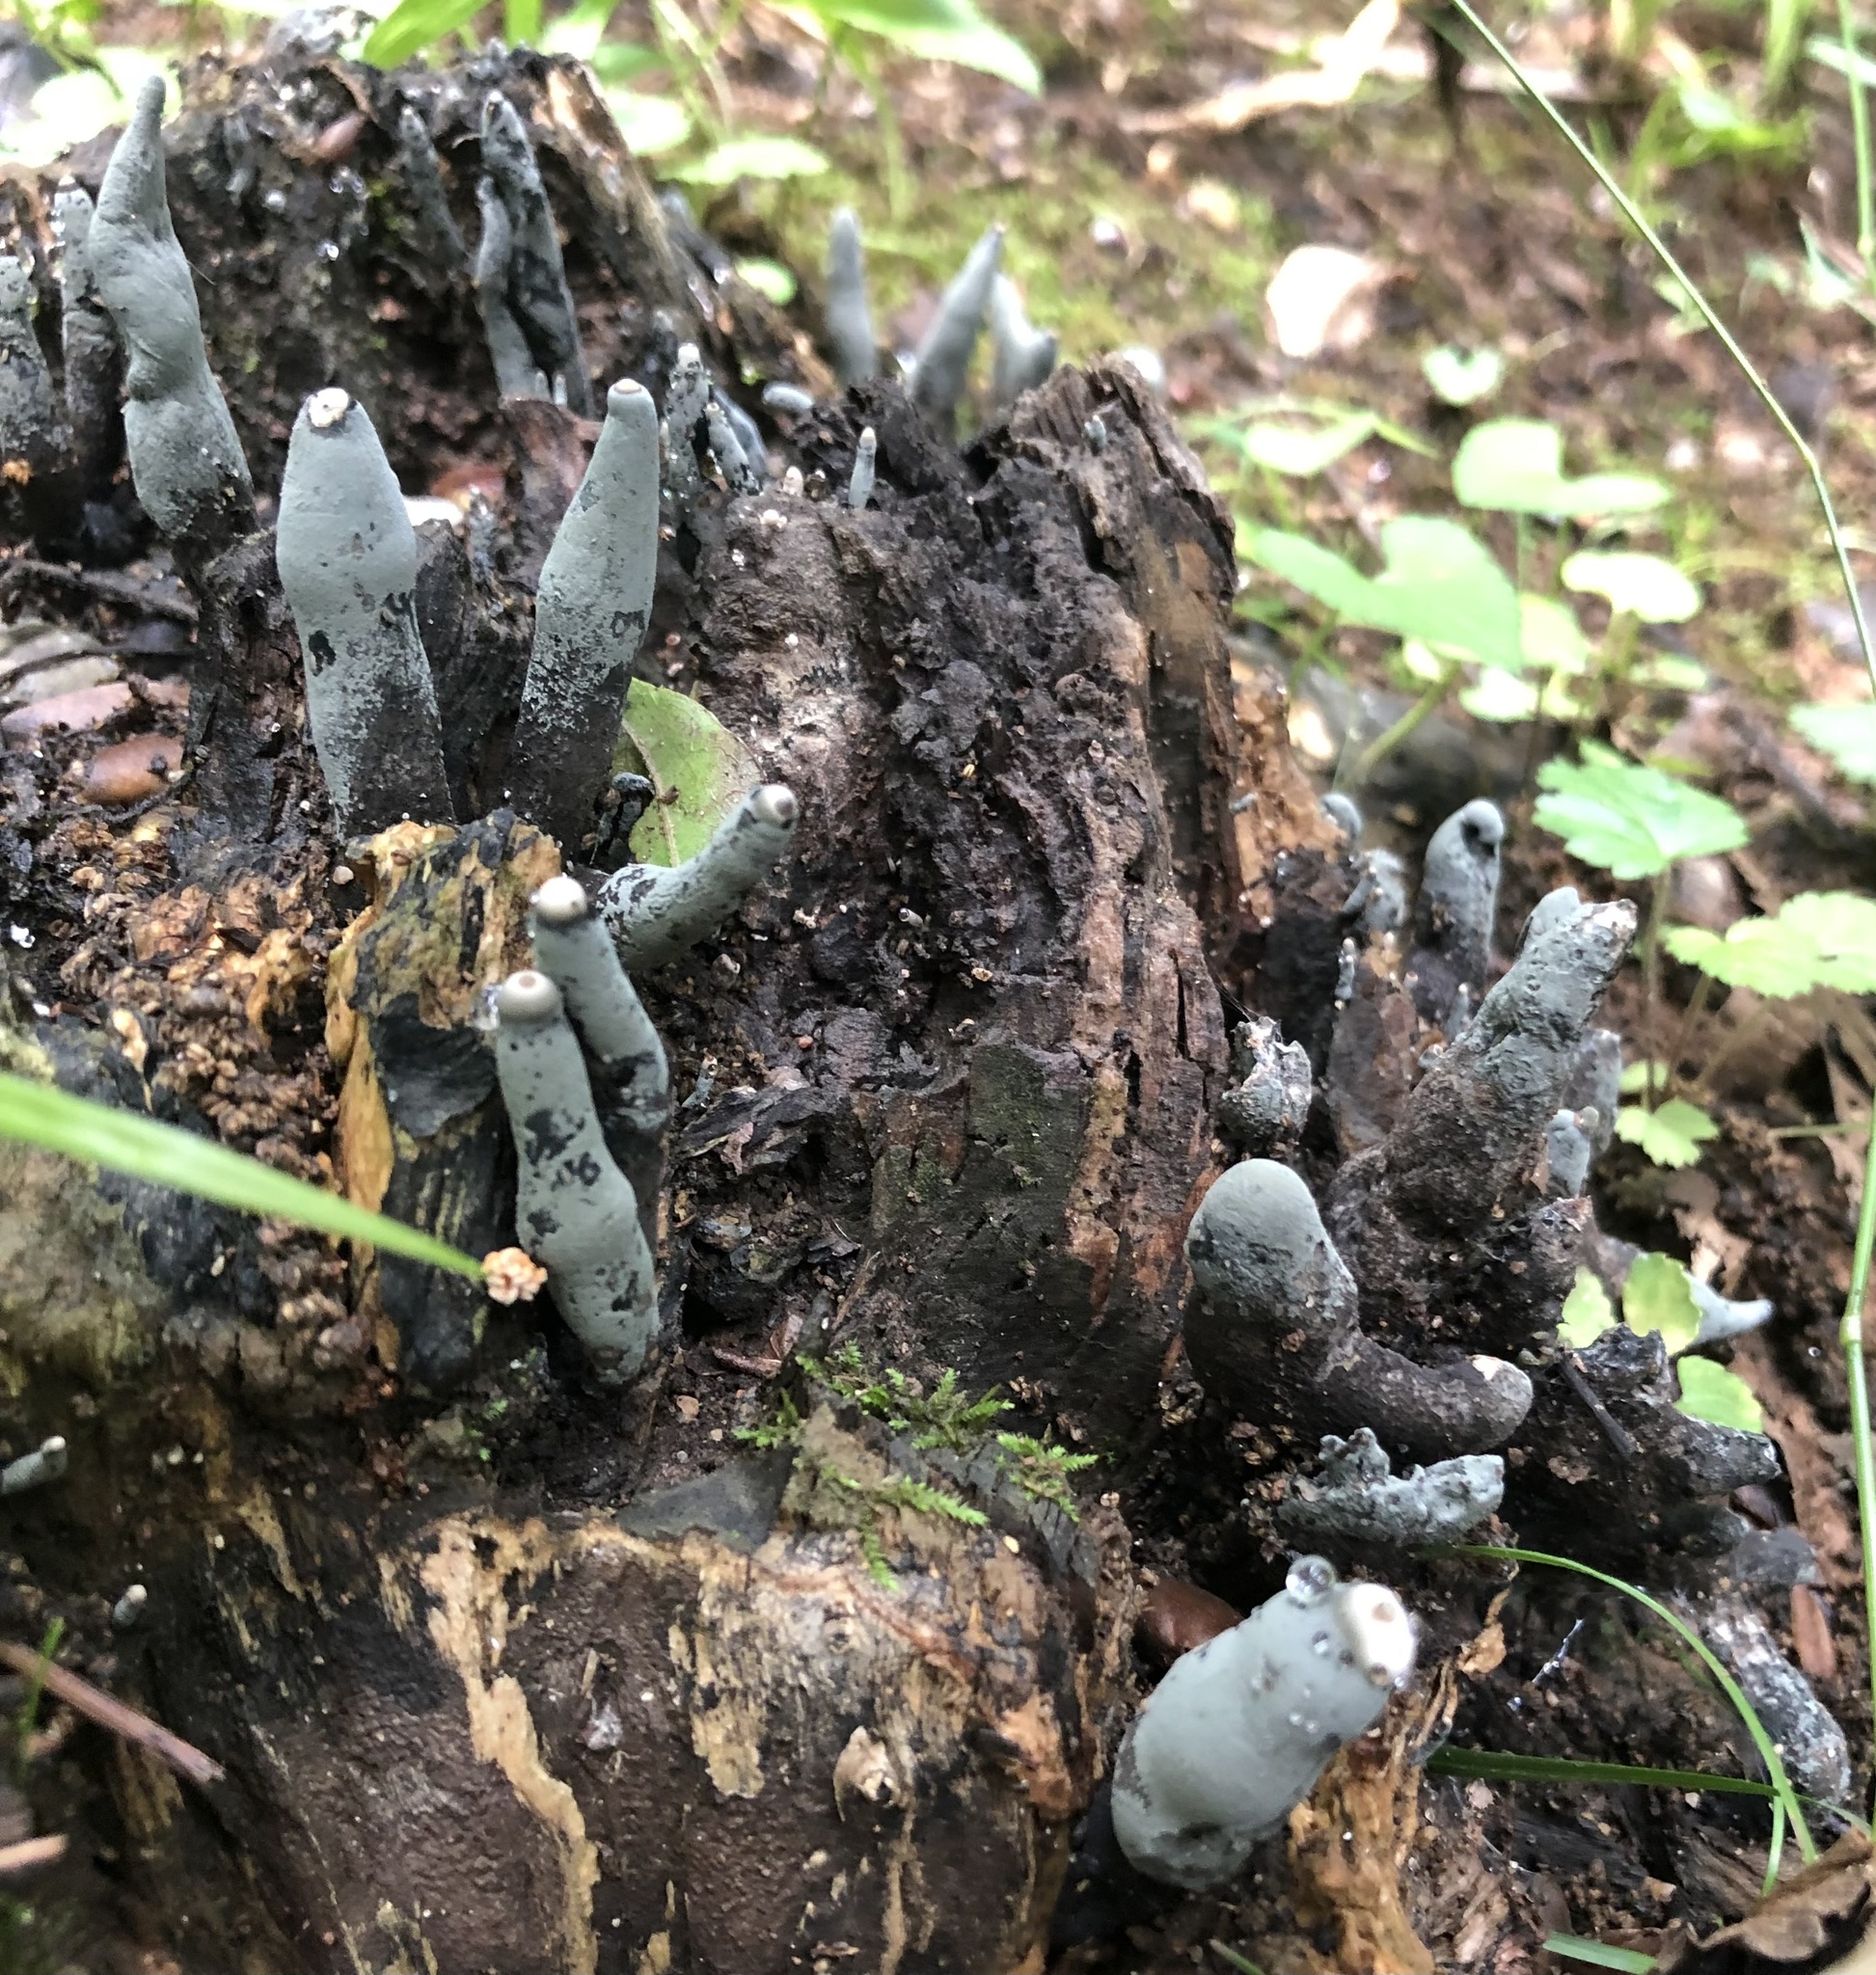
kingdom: Fungi
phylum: Ascomycota
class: Sordariomycetes
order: Xylariales
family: Xylariaceae
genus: Xylaria
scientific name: Xylaria polymorpha
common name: Dead man's fingers
